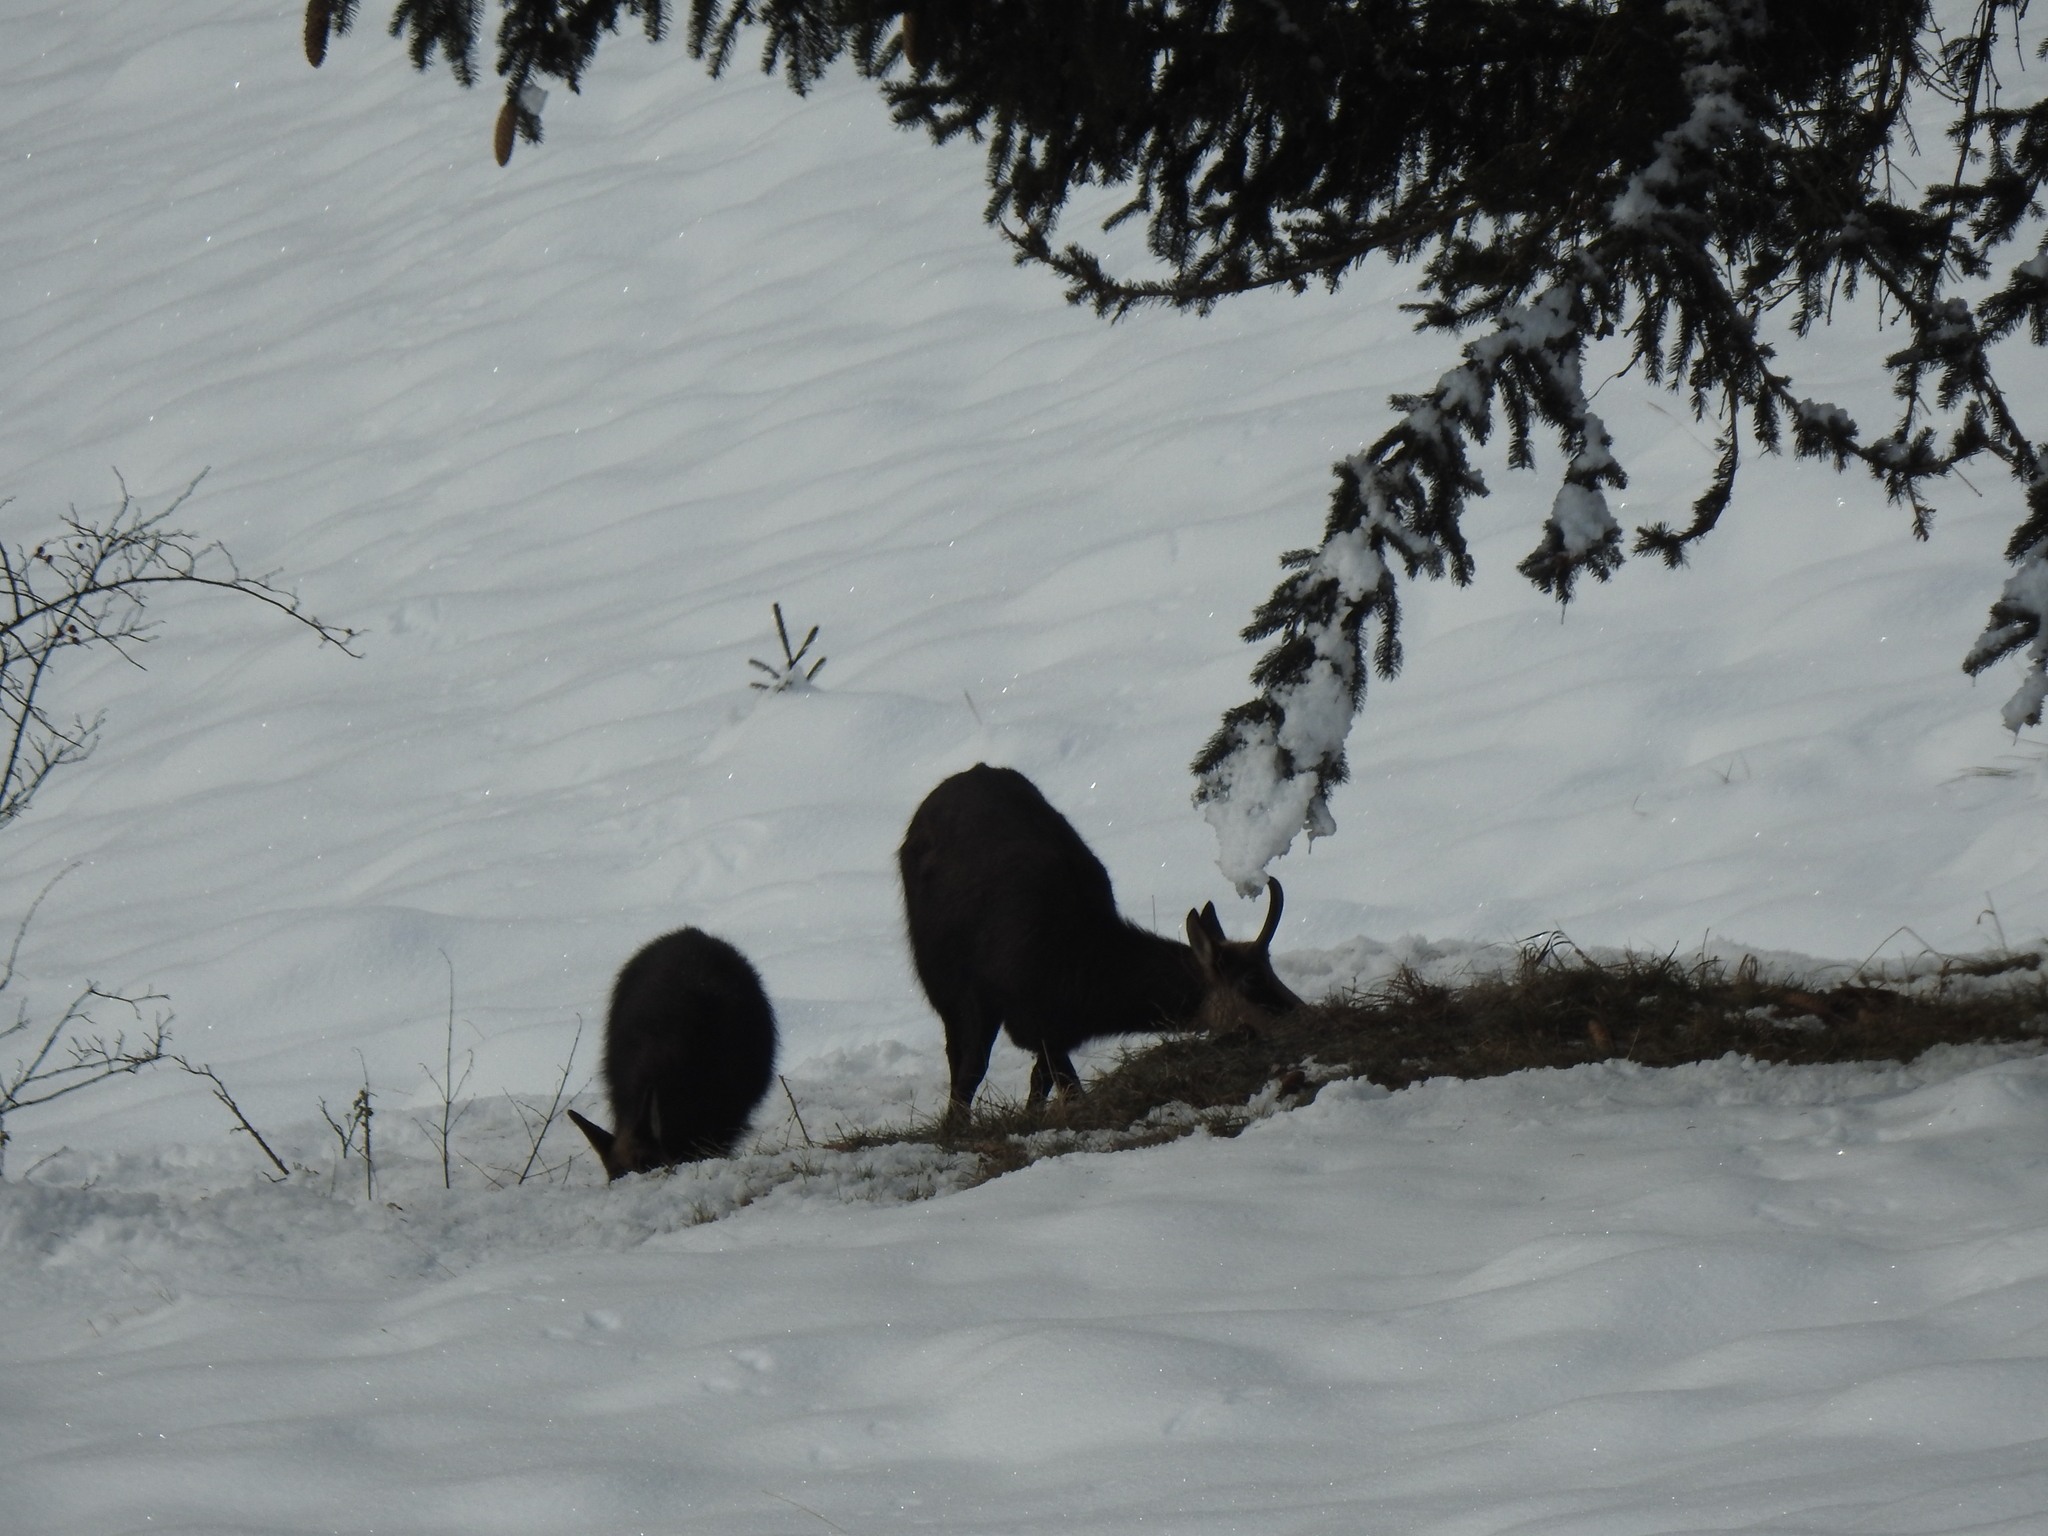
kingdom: Animalia
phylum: Chordata
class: Mammalia
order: Artiodactyla
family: Bovidae
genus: Rupicapra
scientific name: Rupicapra rupicapra
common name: Chamois
